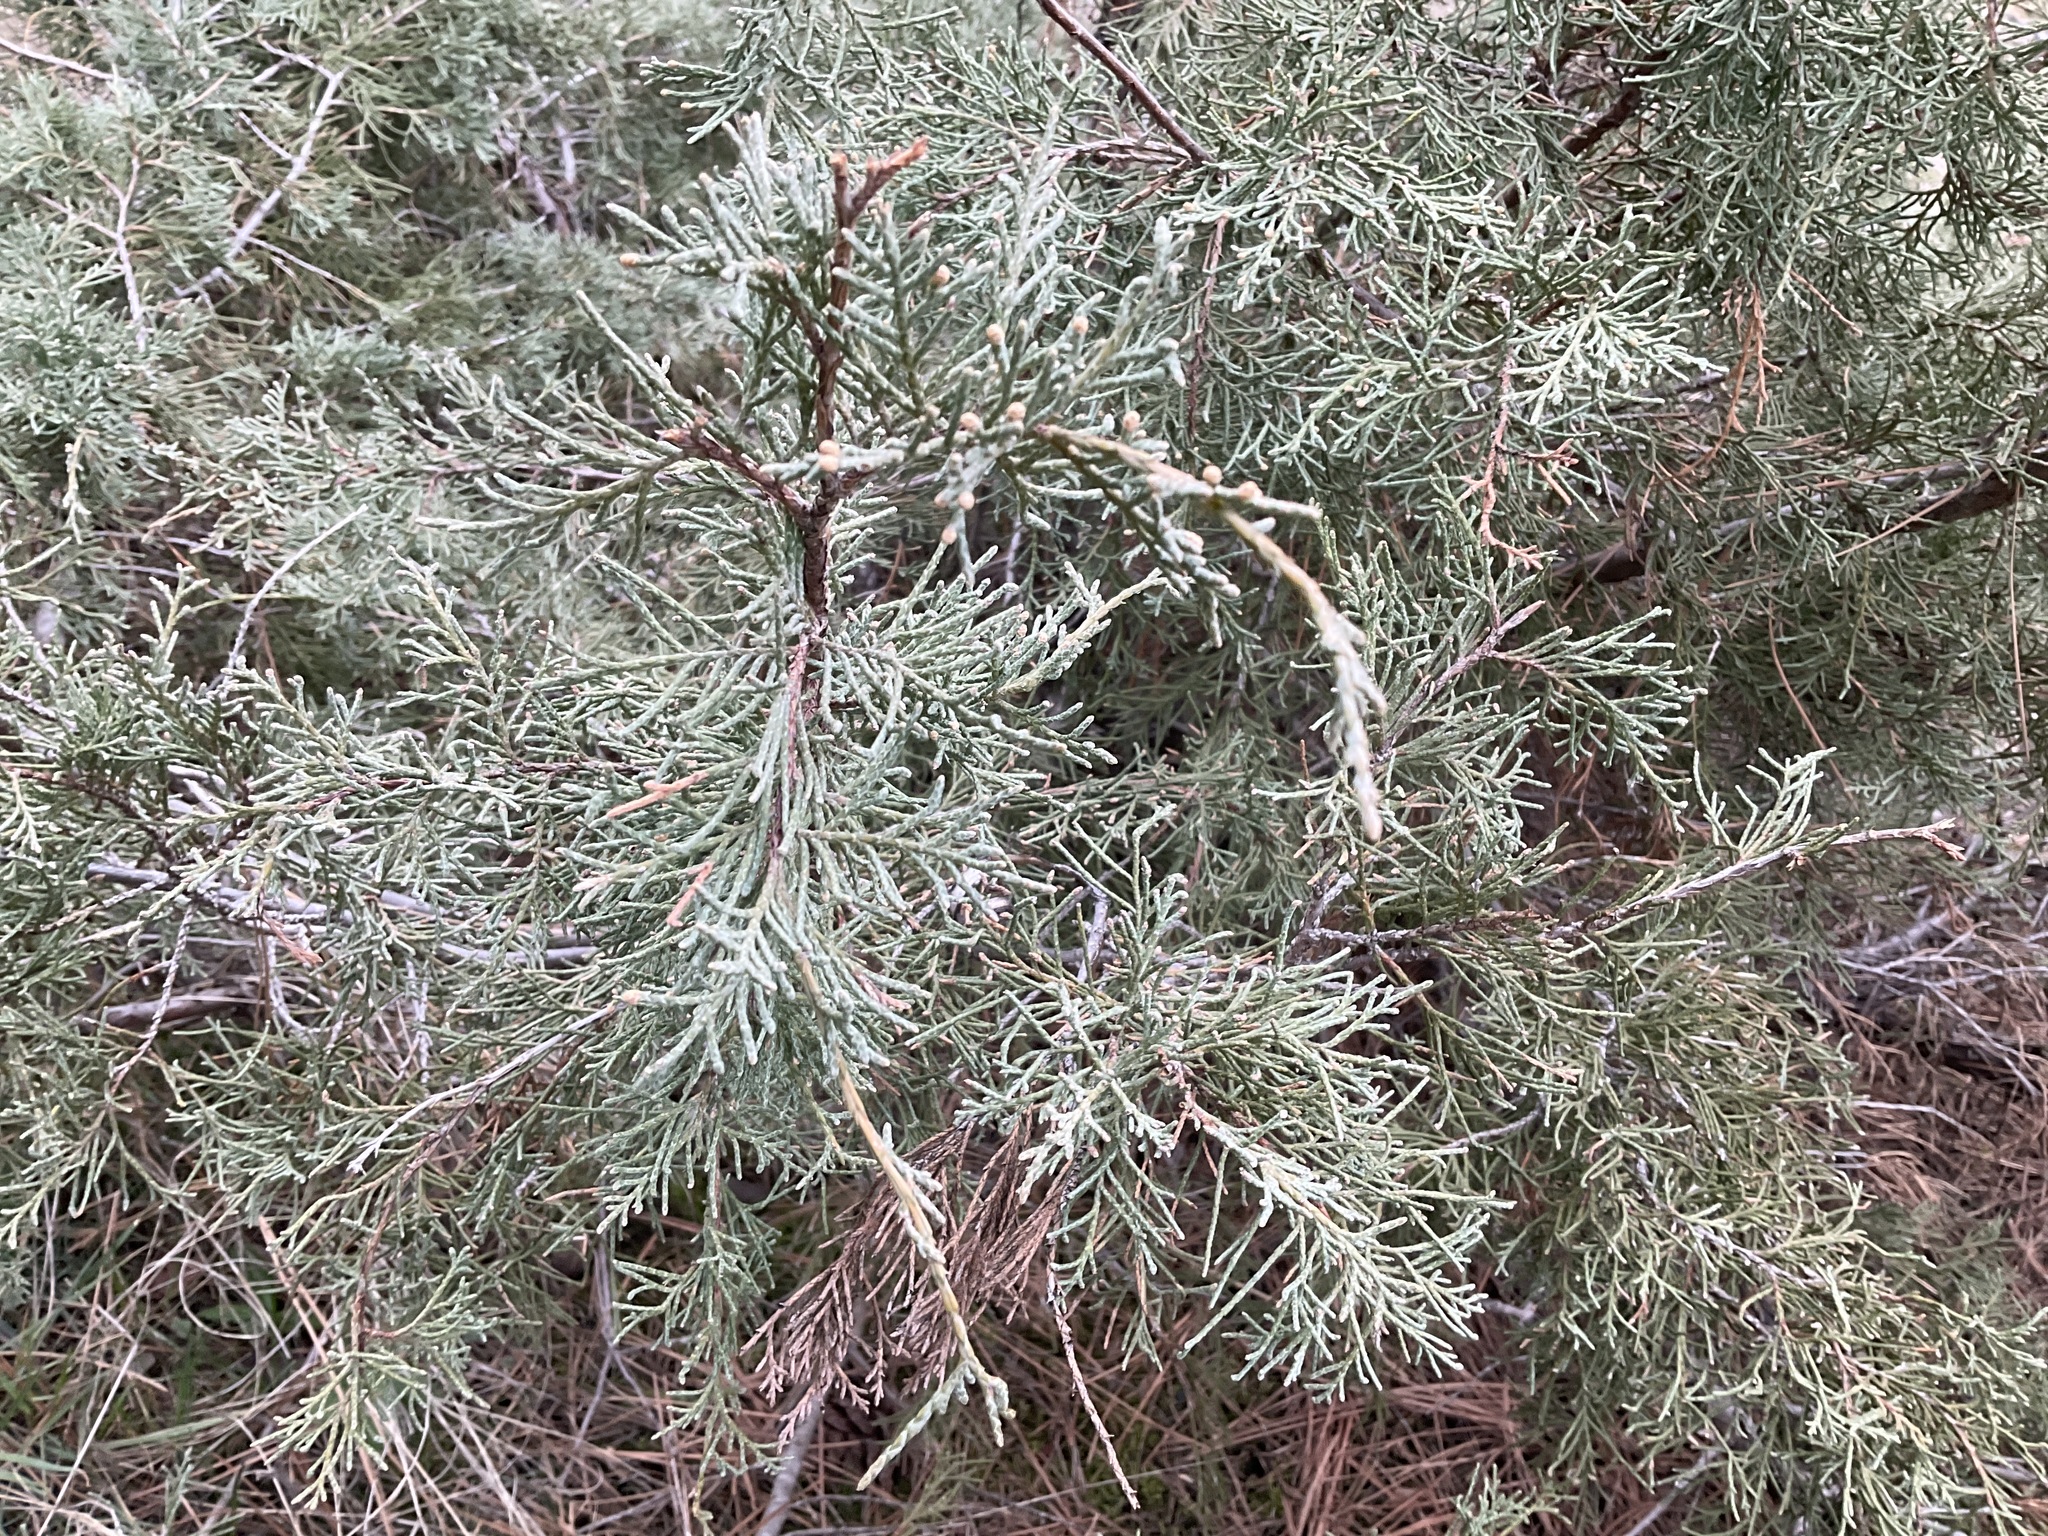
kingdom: Plantae
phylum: Tracheophyta
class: Pinopsida
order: Pinales
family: Cupressaceae
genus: Juniperus
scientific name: Juniperus scopulorum
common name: Rocky mountain juniper
